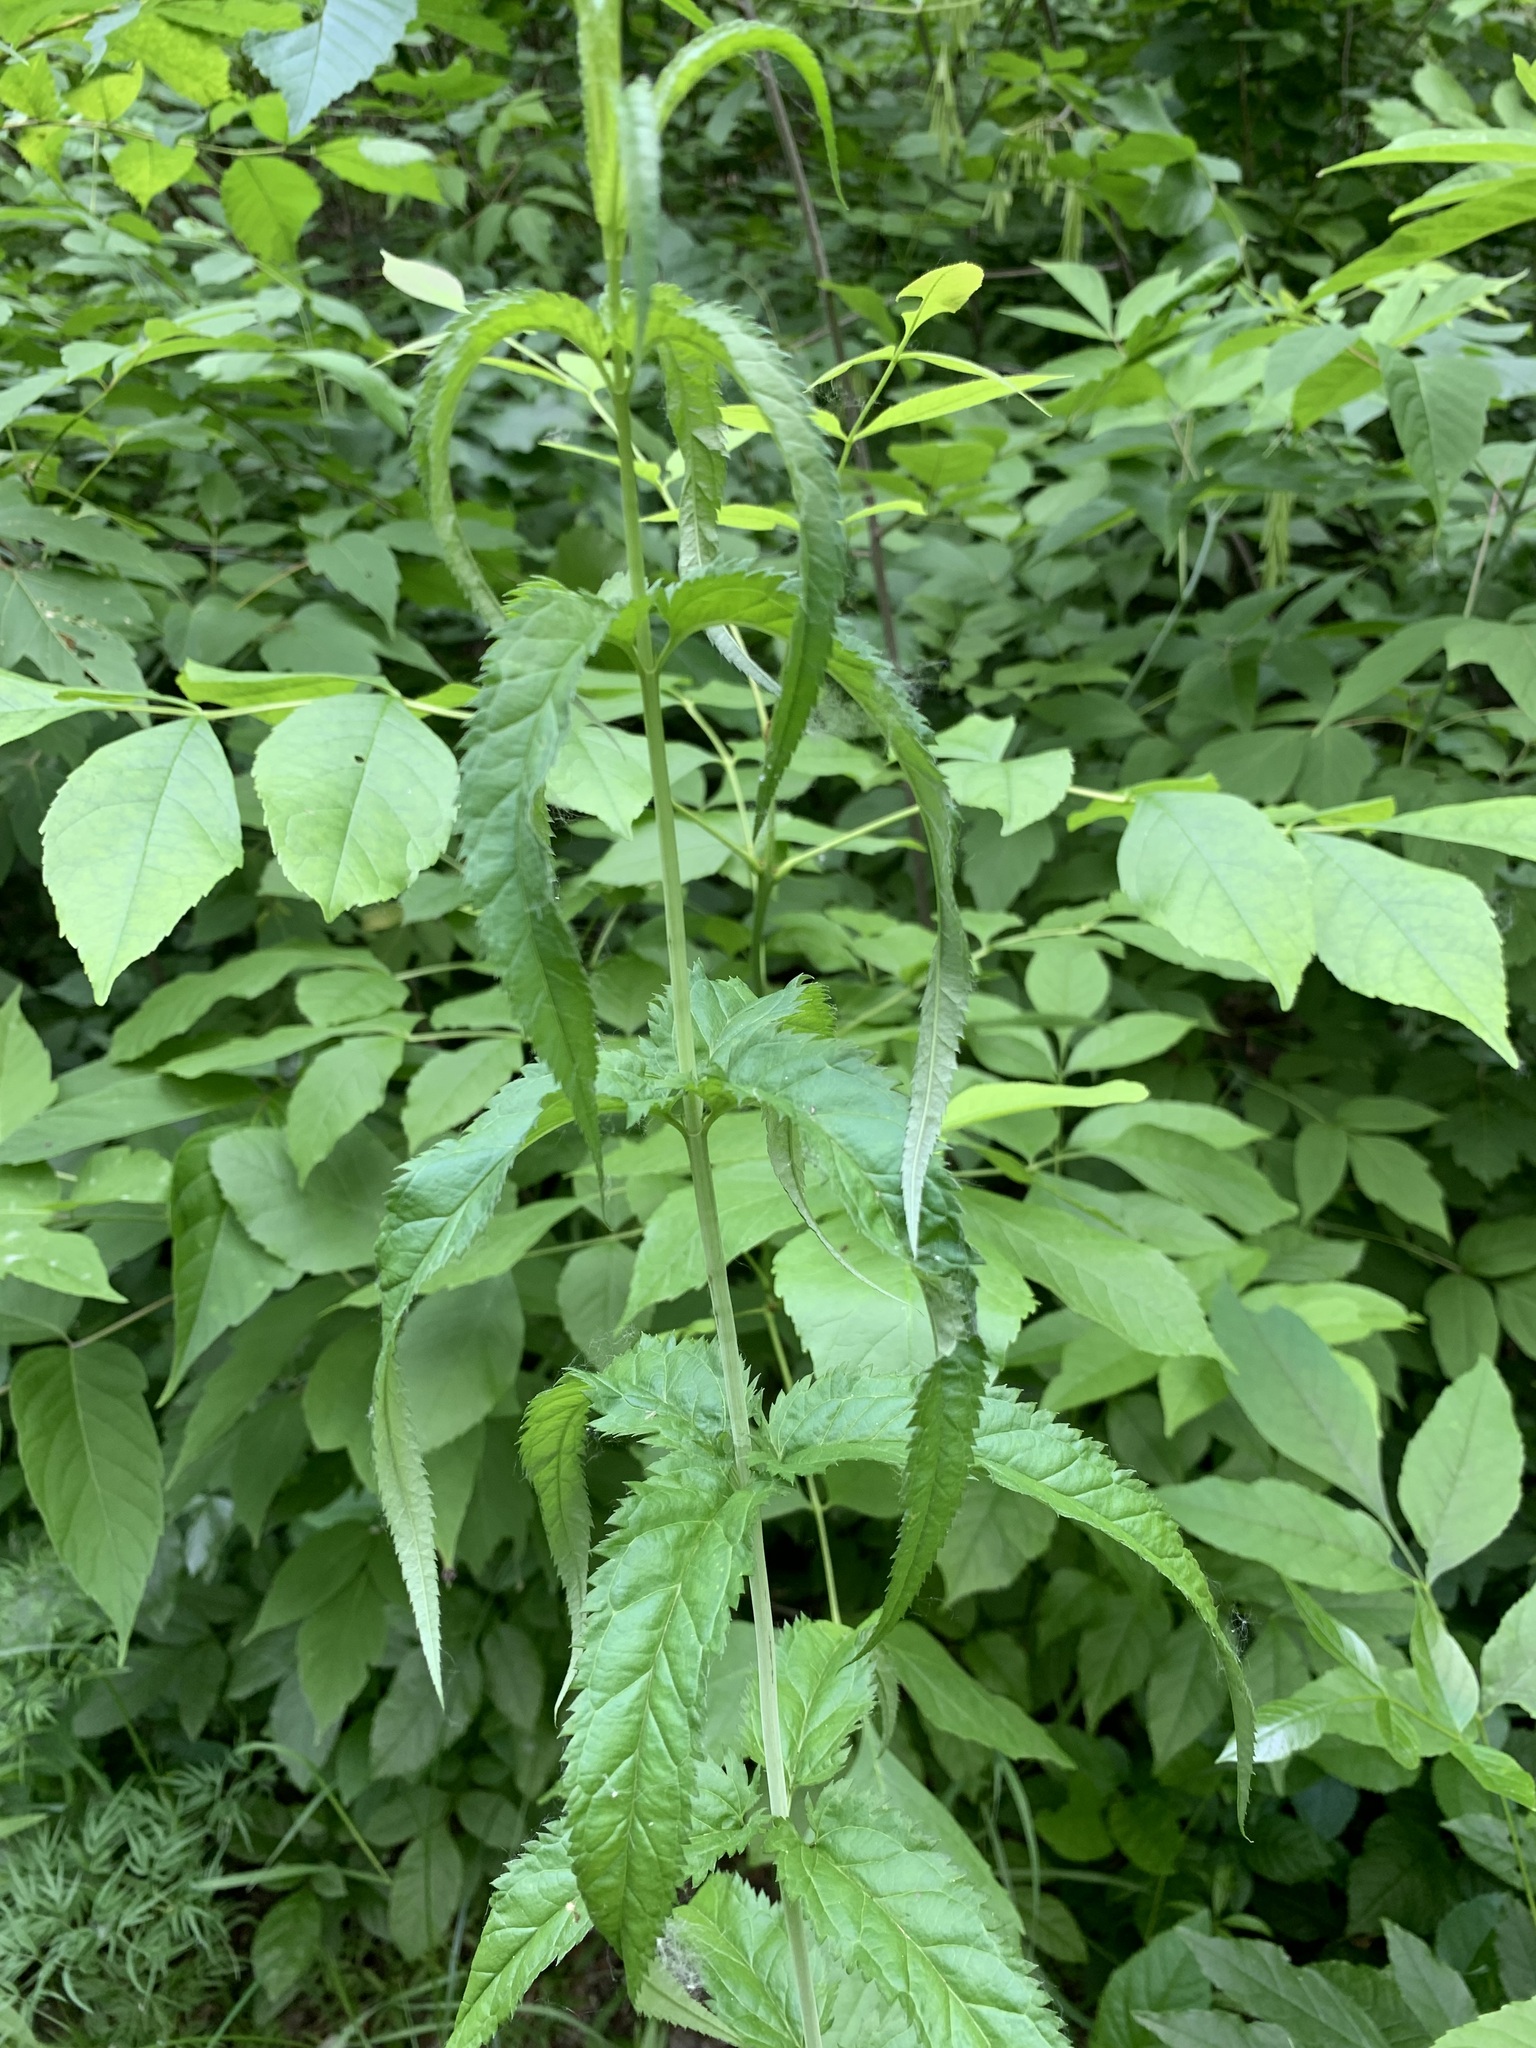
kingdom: Plantae
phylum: Tracheophyta
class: Magnoliopsida
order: Lamiales
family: Plantaginaceae
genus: Veronica
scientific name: Veronica longifolia
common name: Garden speedwell
